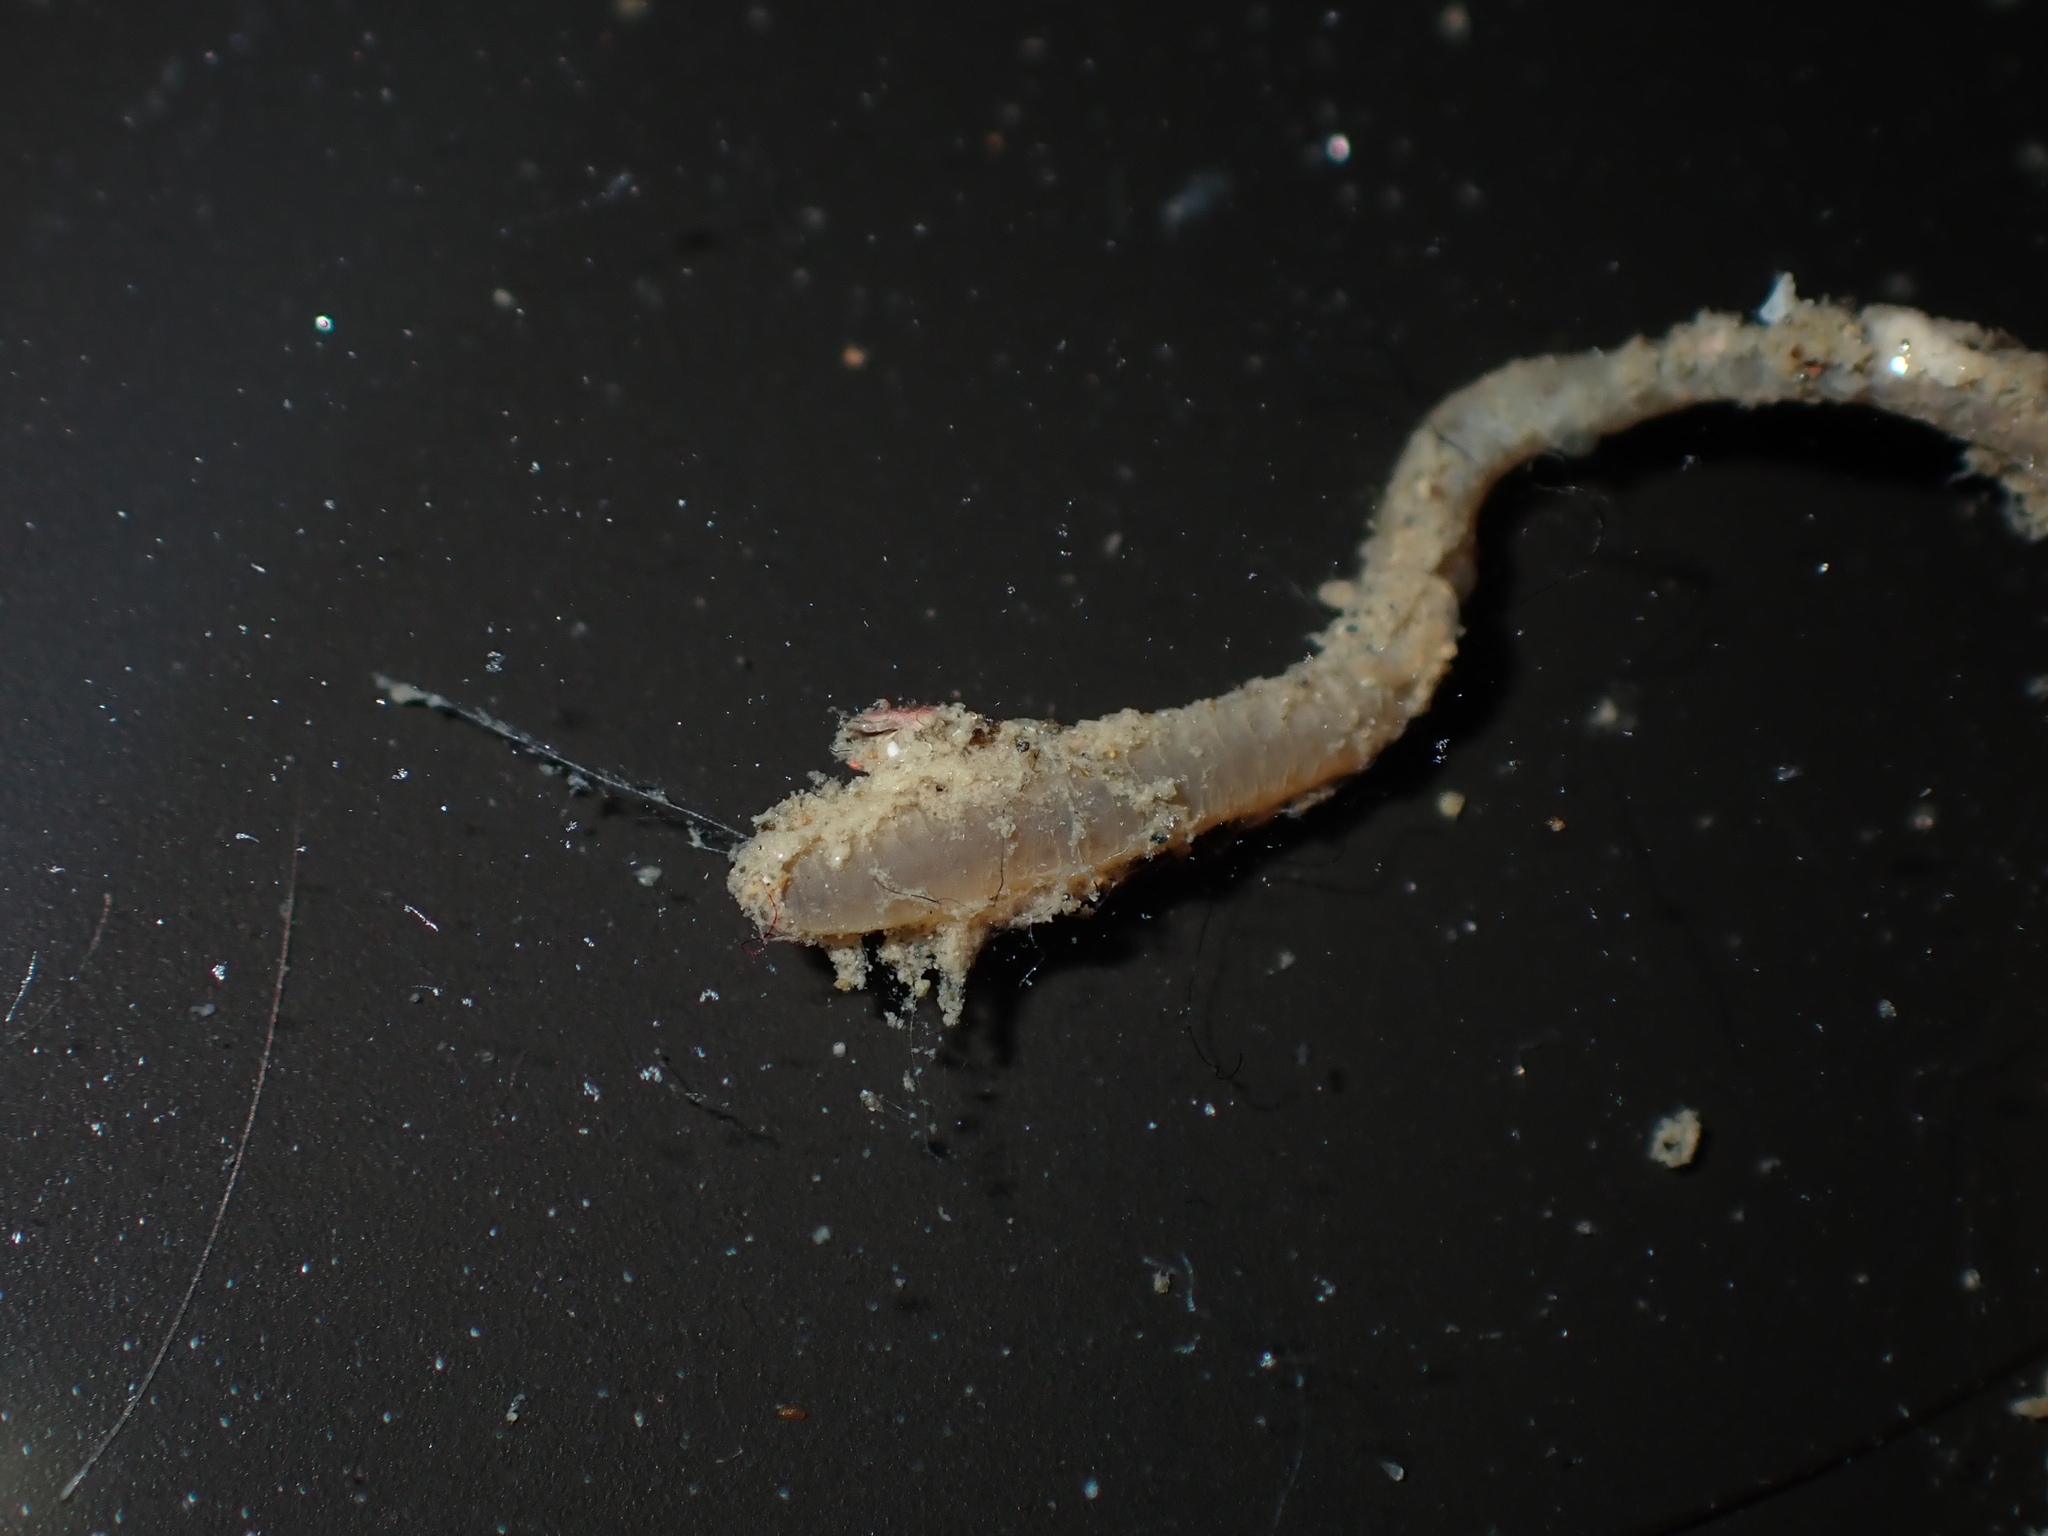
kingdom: Animalia
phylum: Annelida
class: Polychaeta
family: Flabelligeridae
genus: Daylithos
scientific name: Daylithos dieteri
